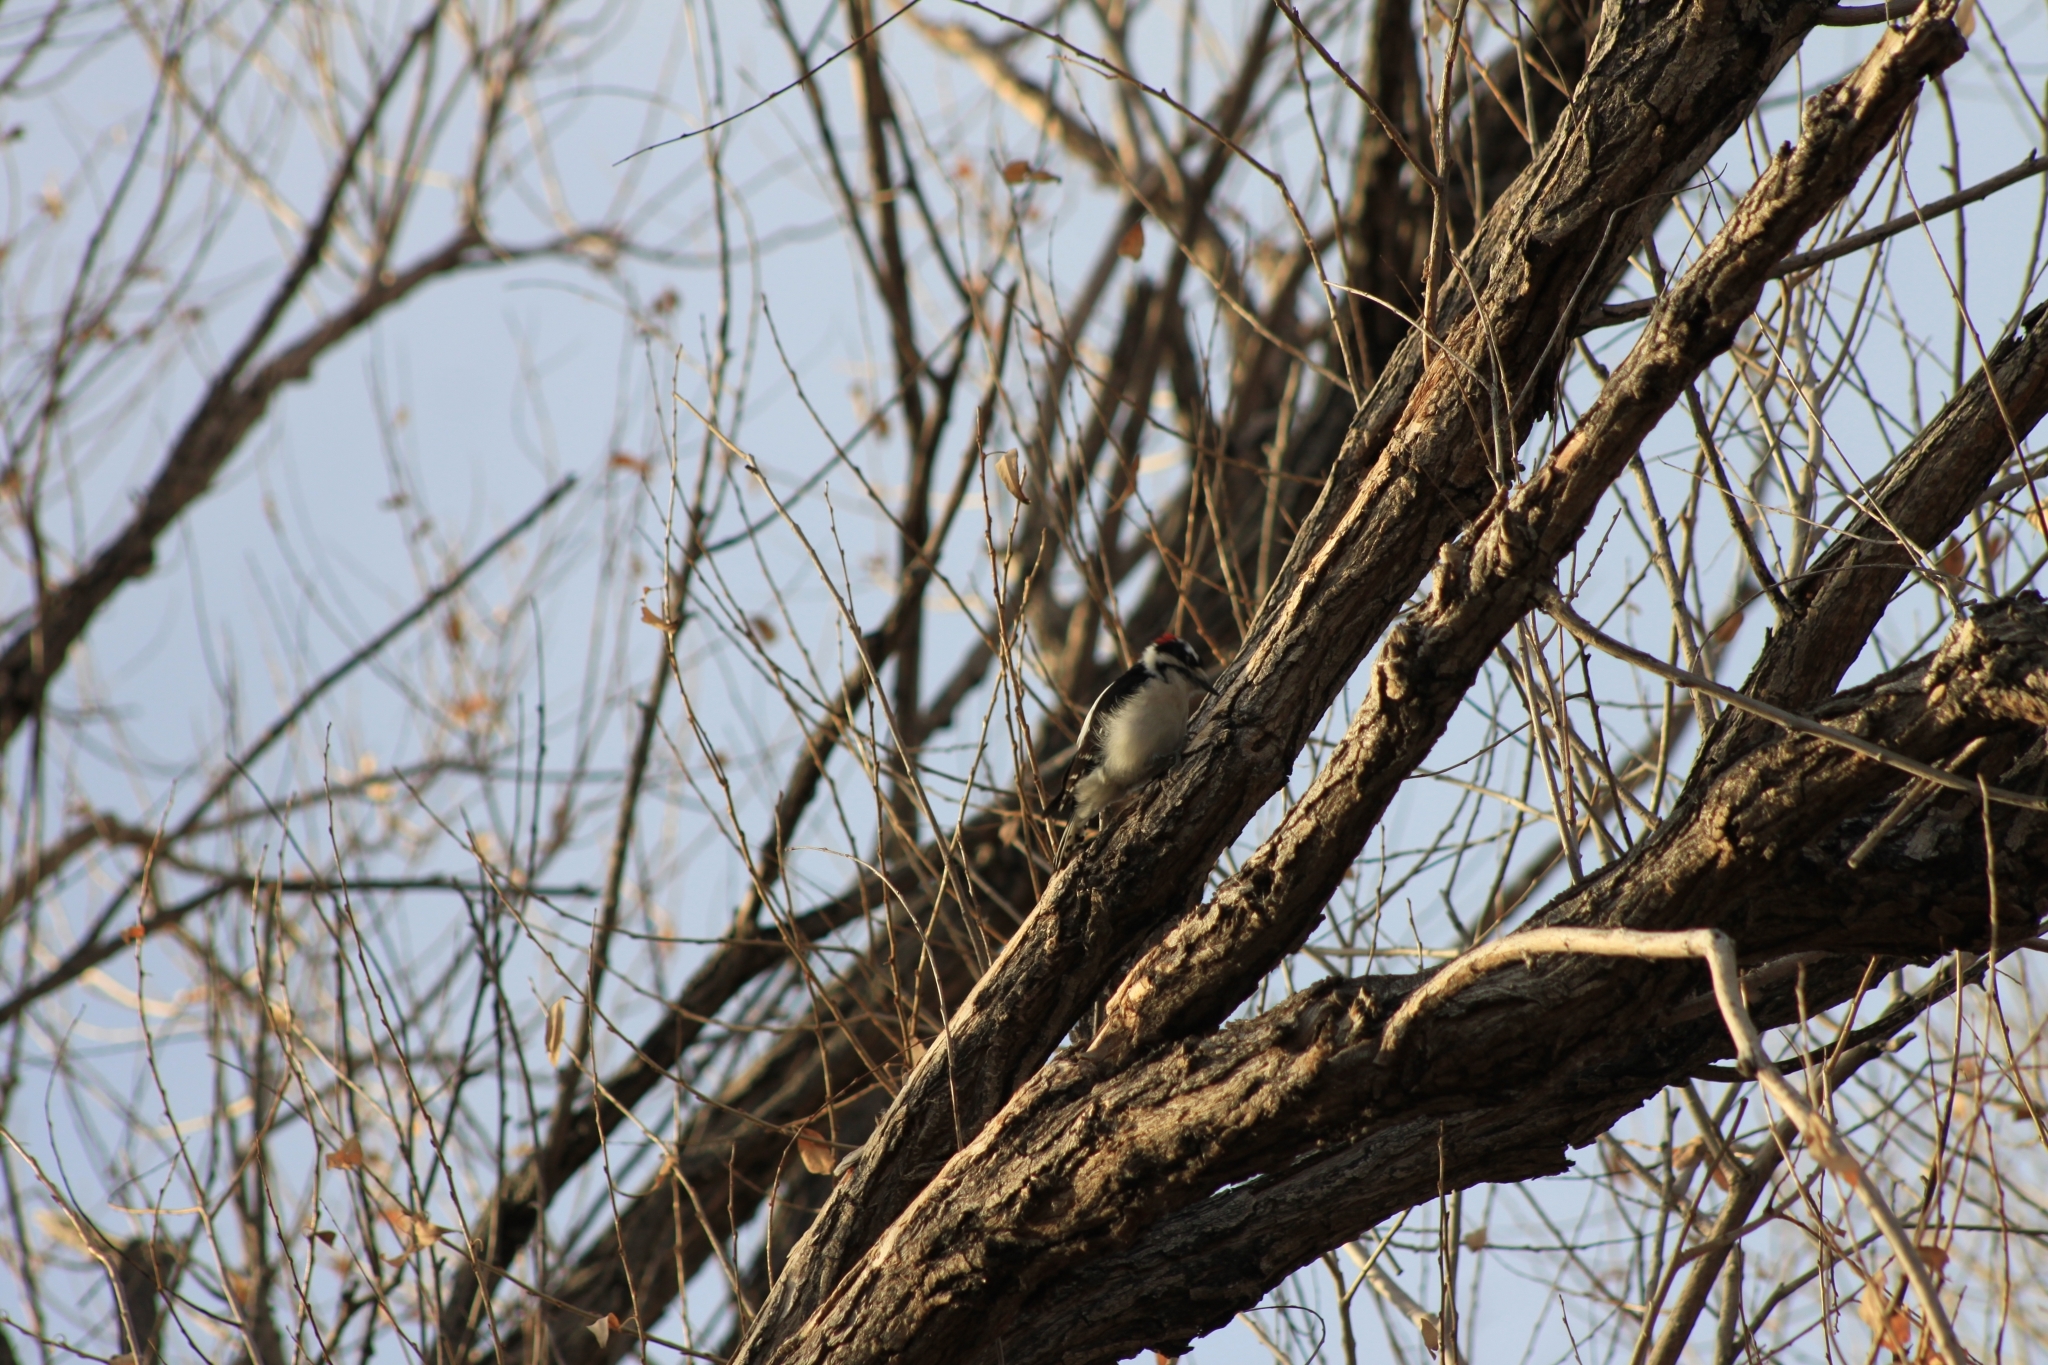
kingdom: Animalia
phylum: Chordata
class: Aves
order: Piciformes
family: Picidae
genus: Dryobates
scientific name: Dryobates pubescens
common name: Downy woodpecker
